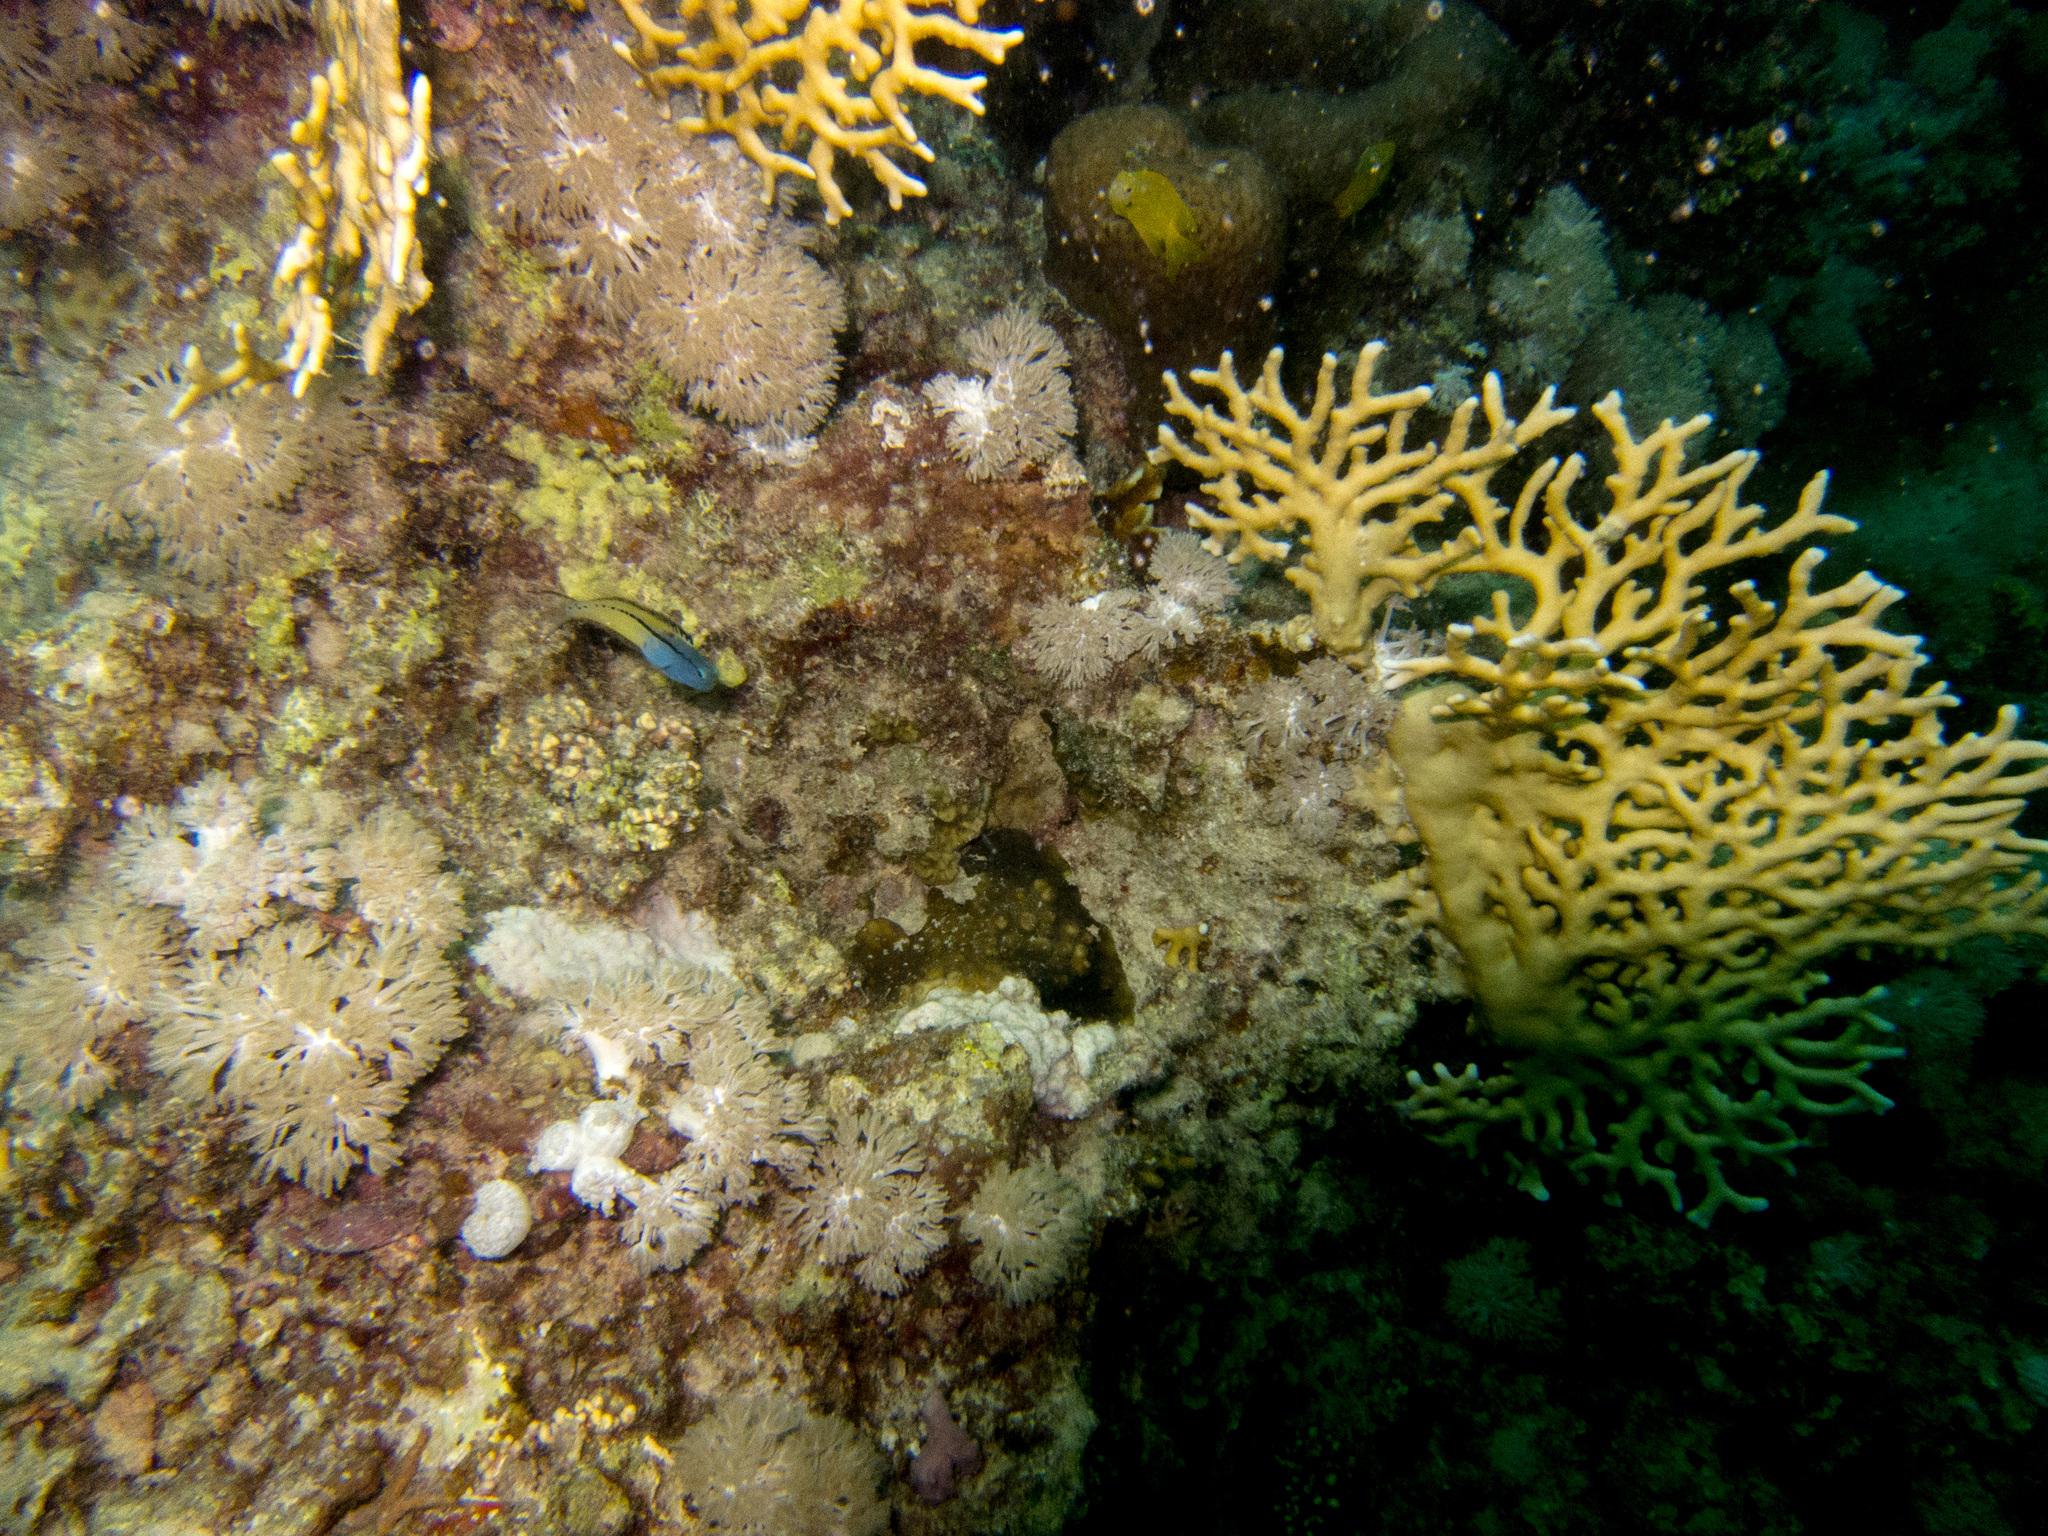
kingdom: Animalia
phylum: Cnidaria
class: Hydrozoa
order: Anthoathecata
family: Milleporidae
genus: Millepora
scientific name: Millepora dichotoma
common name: Ramified fire coral
